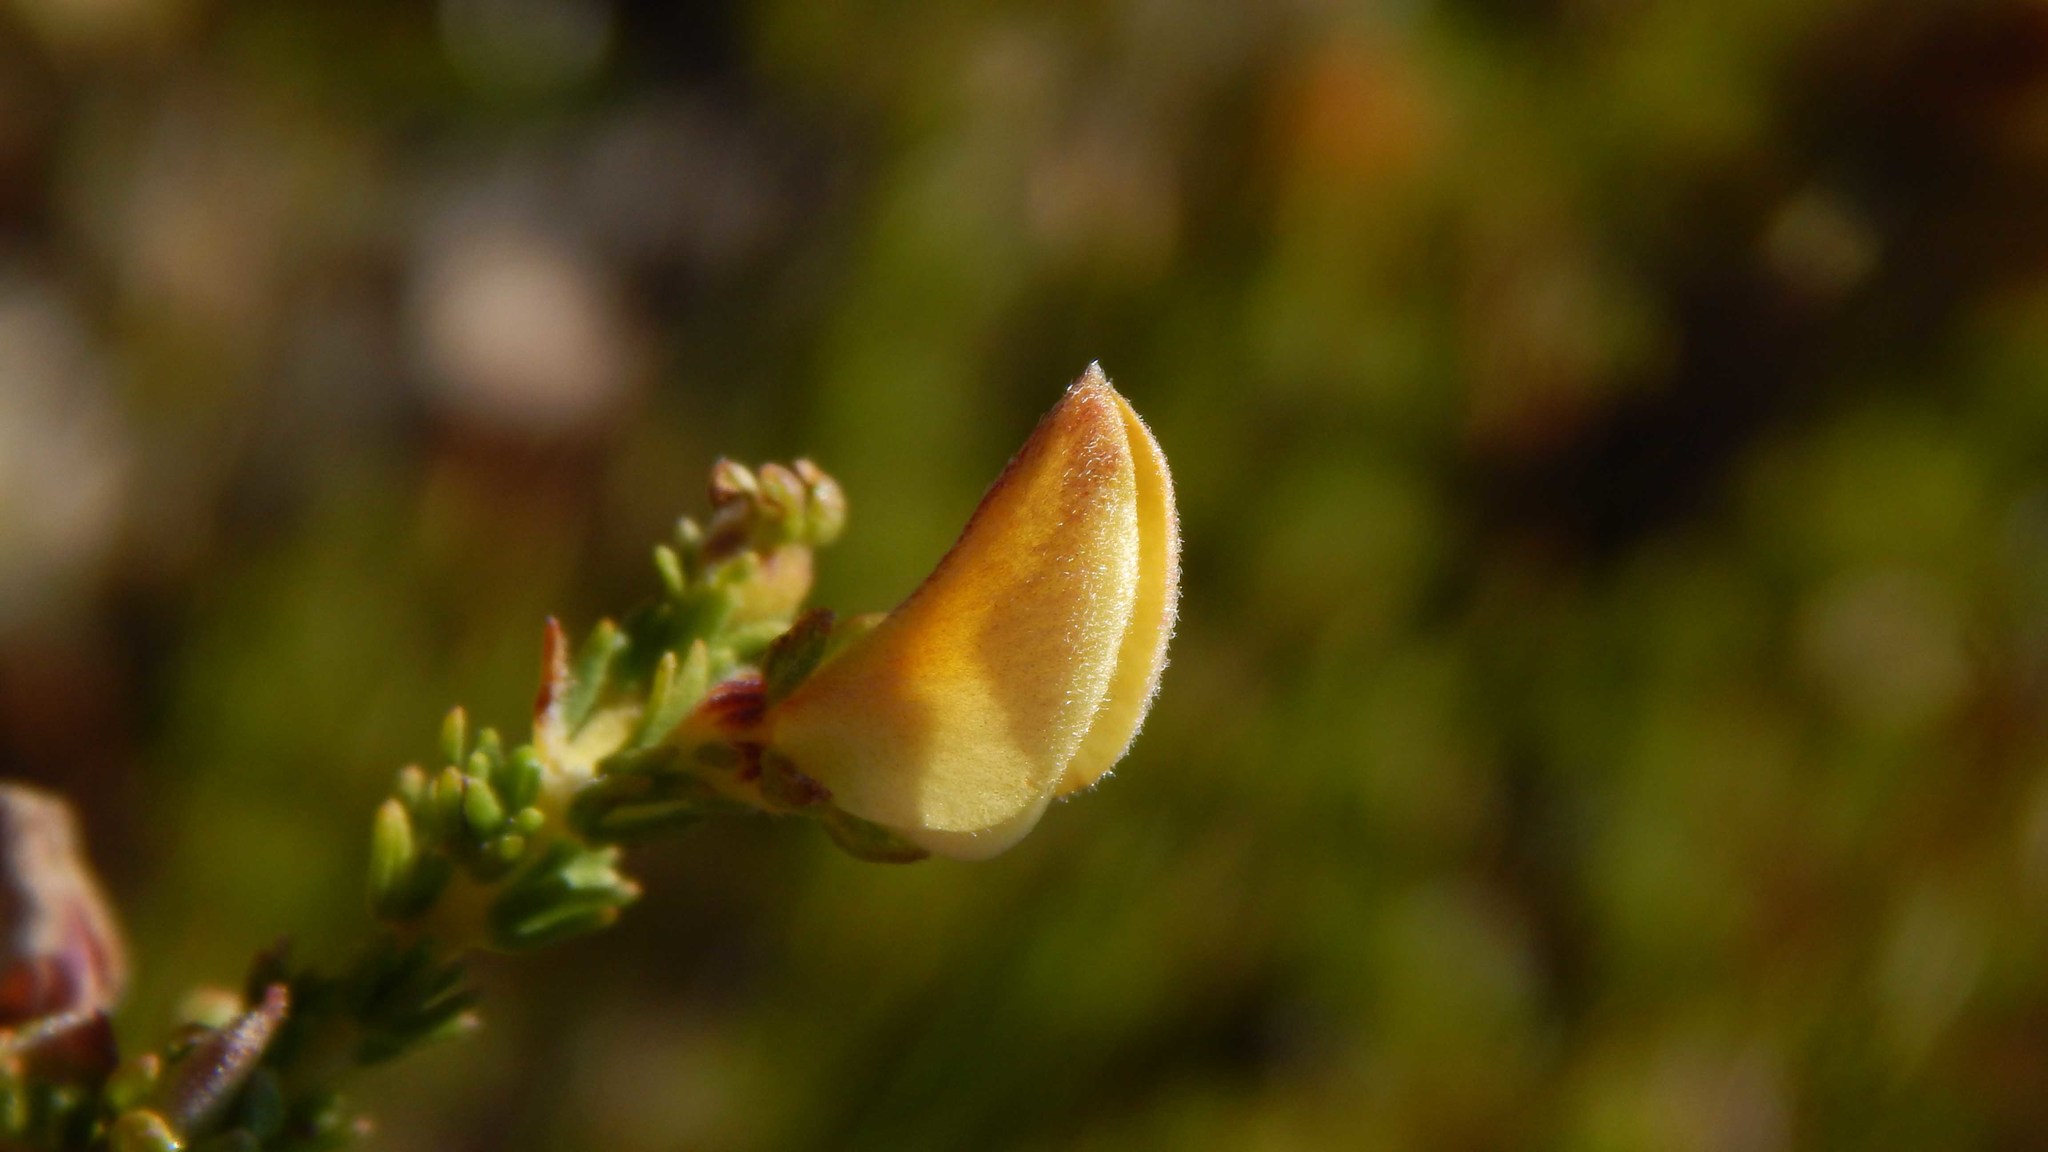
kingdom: Plantae
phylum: Tracheophyta
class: Magnoliopsida
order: Fabales
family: Fabaceae
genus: Aspalathus
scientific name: Aspalathus cymbiformis
